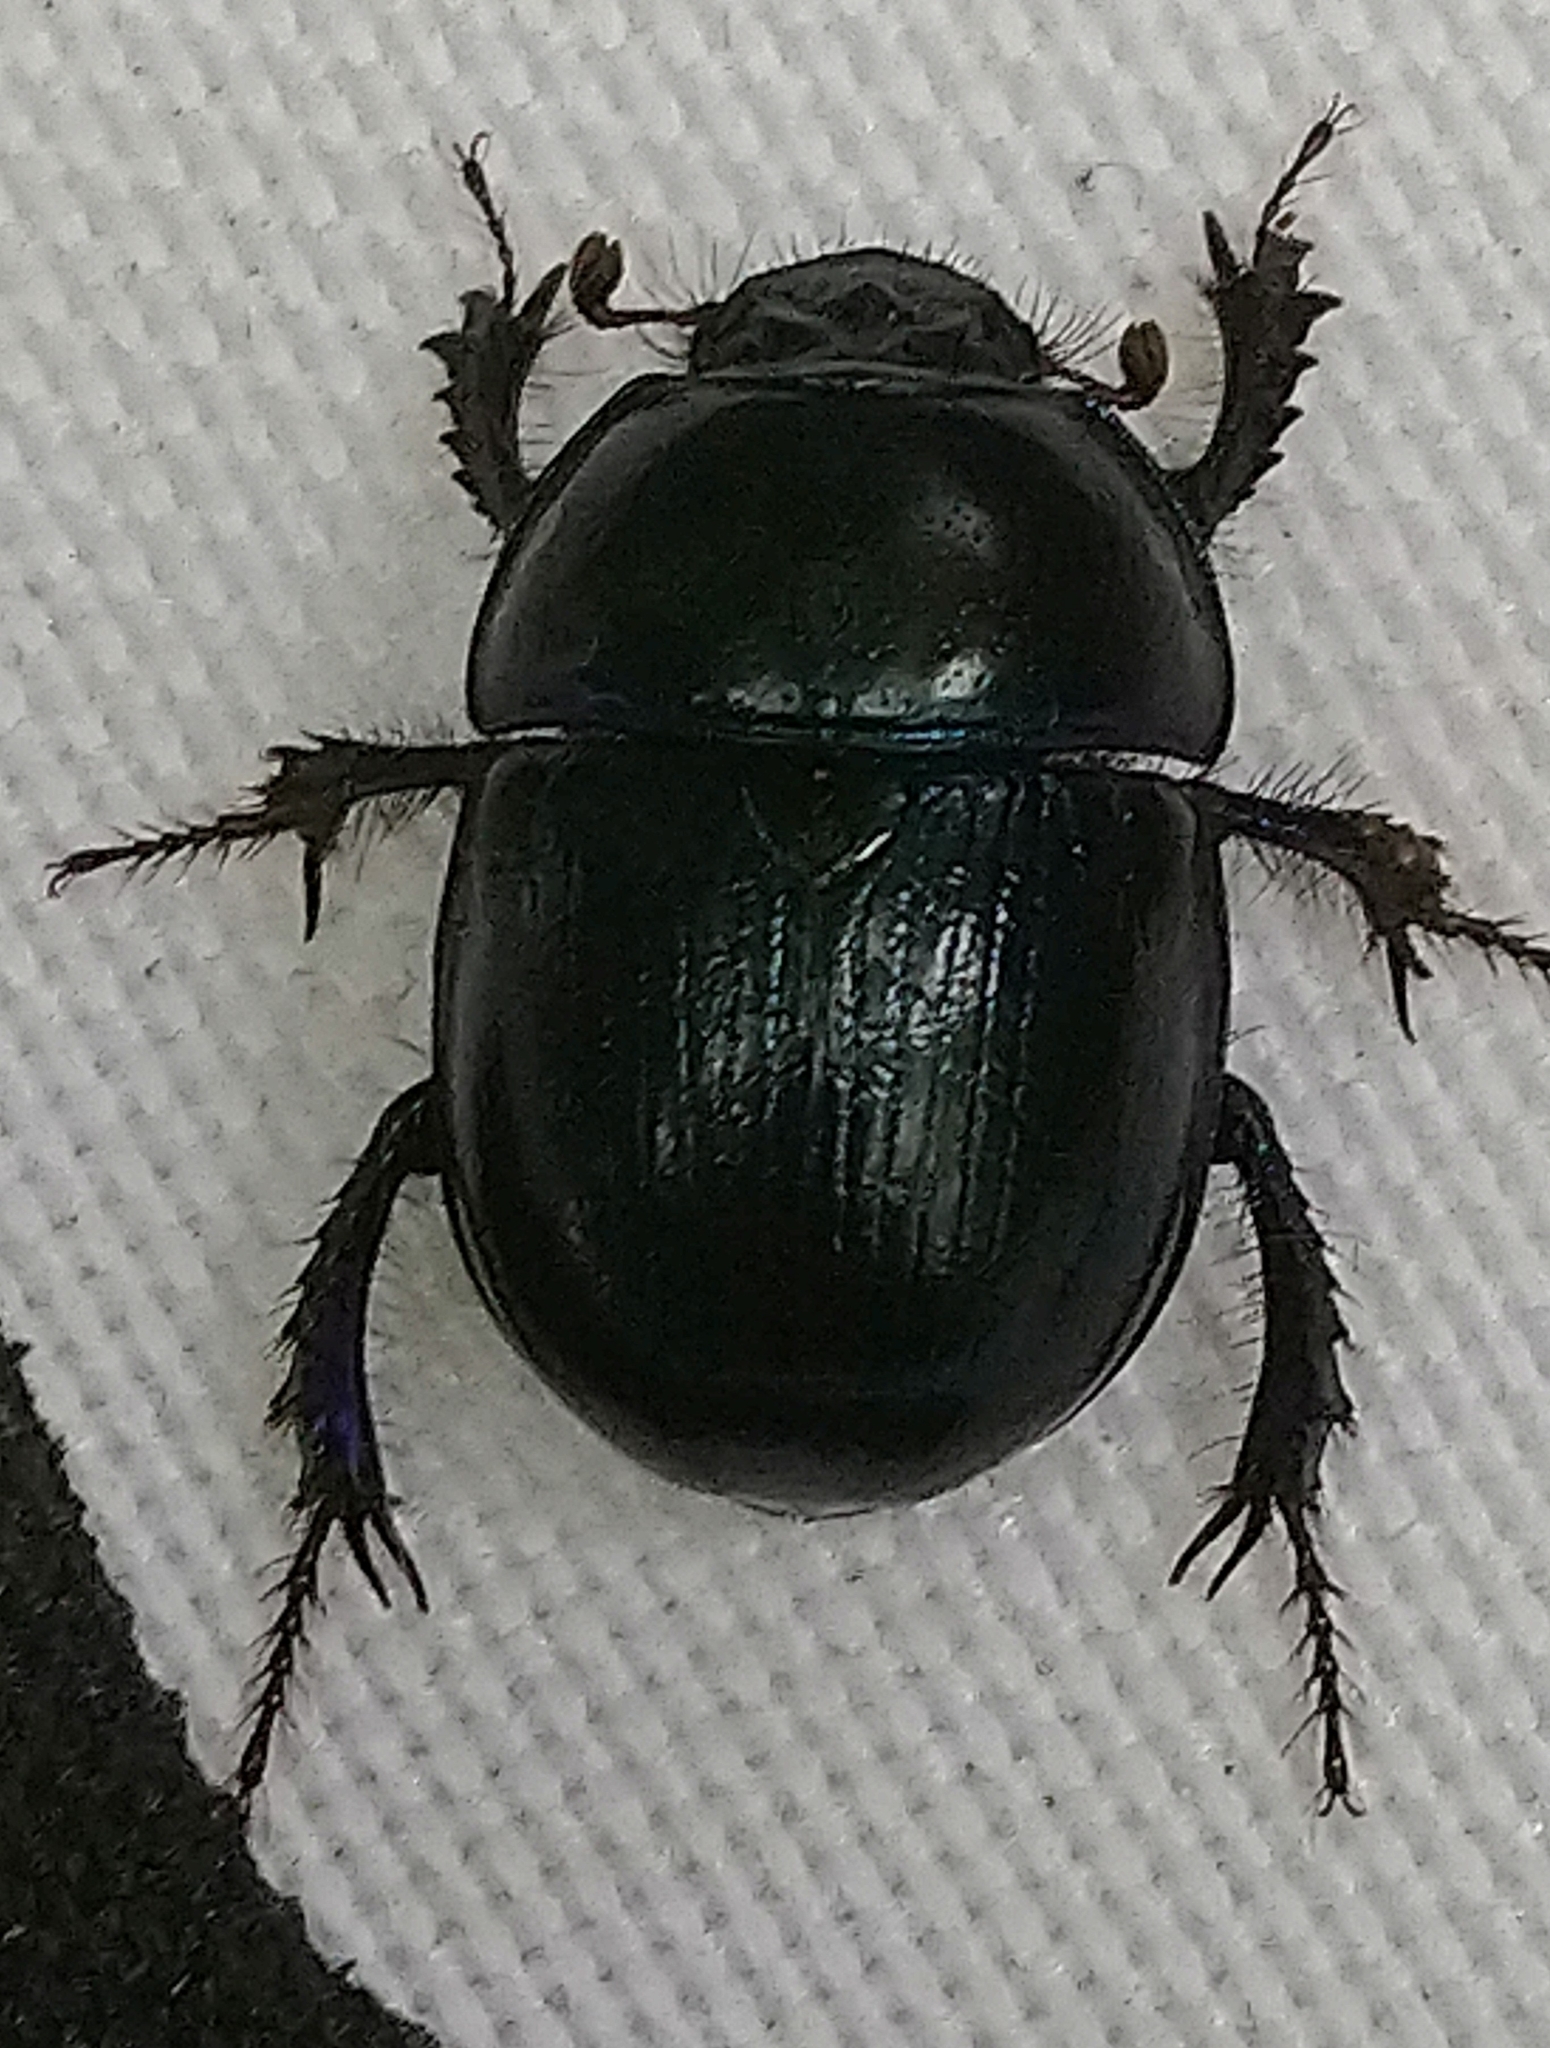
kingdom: Animalia
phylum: Arthropoda
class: Insecta
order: Coleoptera
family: Geotrupidae
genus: Anoplotrupes
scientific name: Anoplotrupes stercorosus
